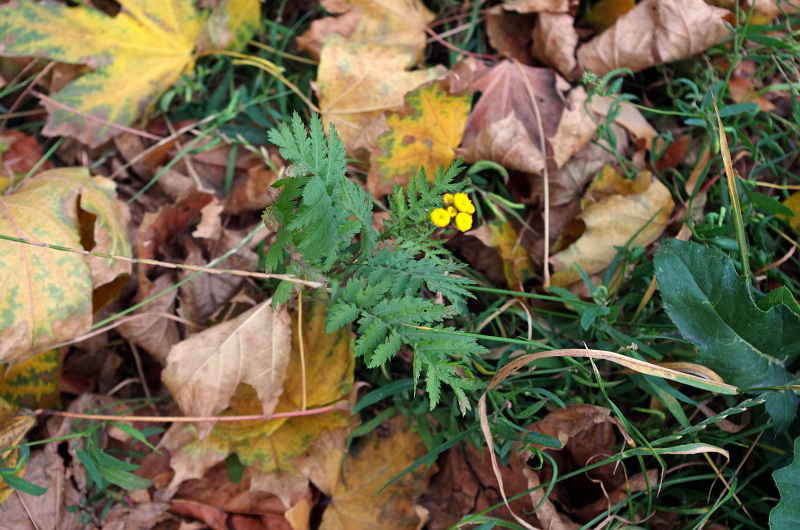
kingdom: Plantae
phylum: Tracheophyta
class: Magnoliopsida
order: Asterales
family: Asteraceae
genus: Tanacetum
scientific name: Tanacetum vulgare
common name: Common tansy
